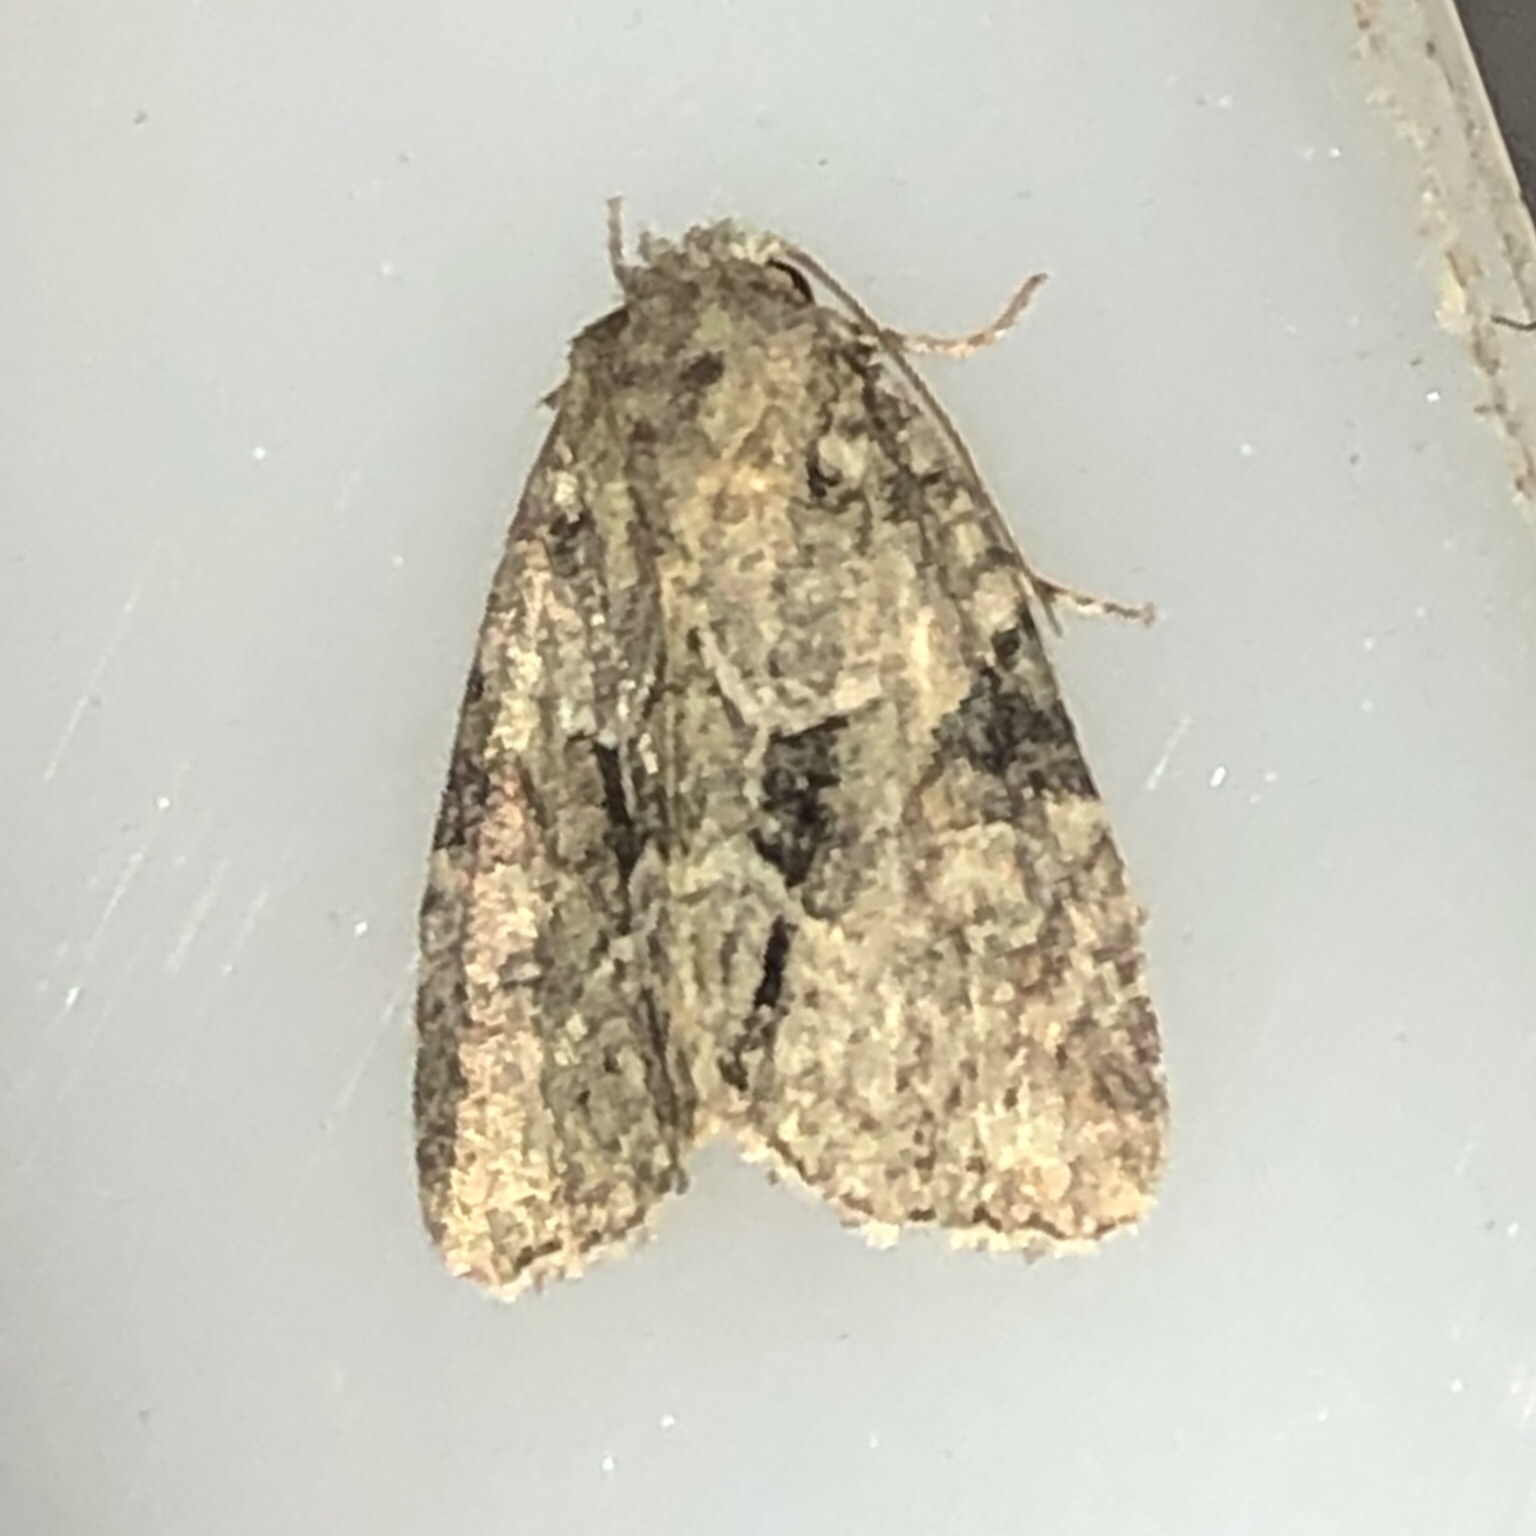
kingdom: Animalia
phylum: Arthropoda
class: Insecta
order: Lepidoptera
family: Noctuidae
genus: Neoligia
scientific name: Neoligia exhausta
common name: Exhausted brocade
